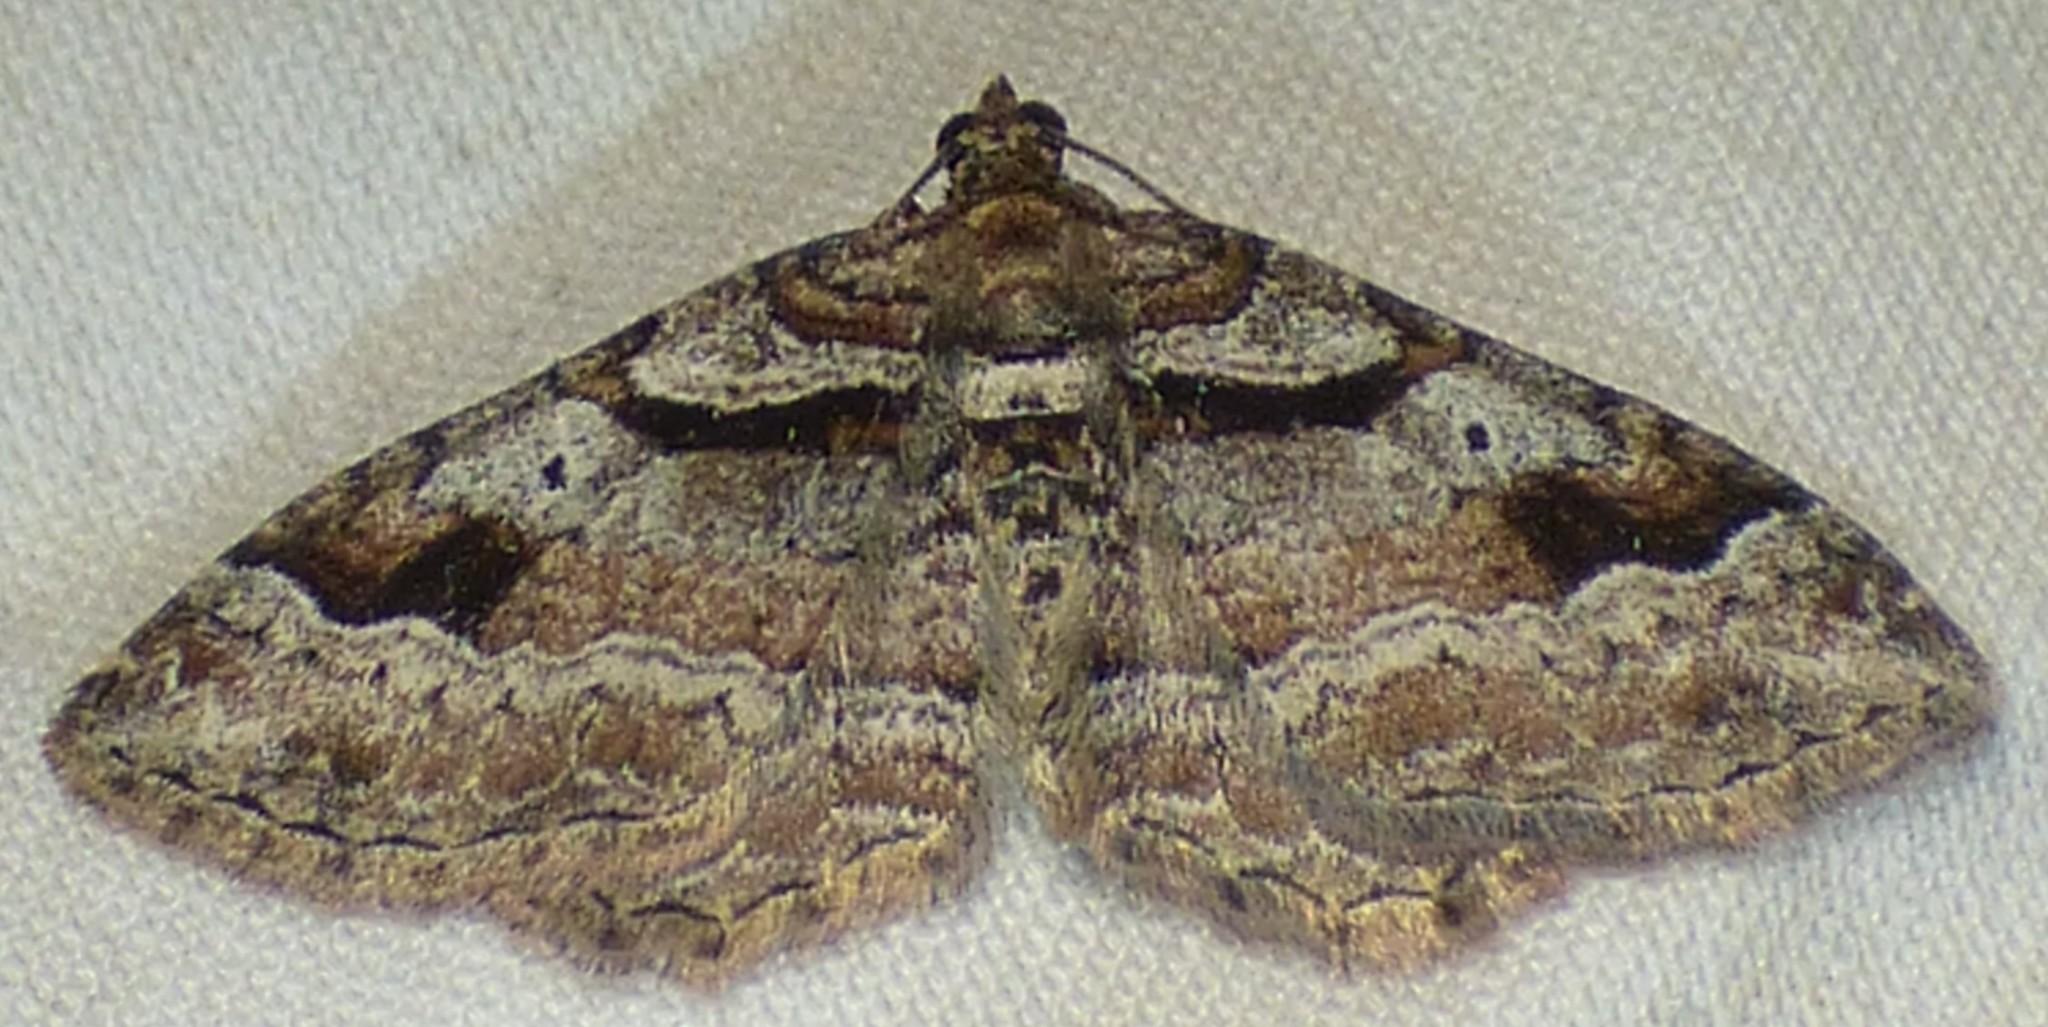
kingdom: Animalia
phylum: Arthropoda
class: Insecta
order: Lepidoptera
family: Geometridae
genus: Costaconvexa
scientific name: Costaconvexa centrostrigaria
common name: Bent-line carpet
